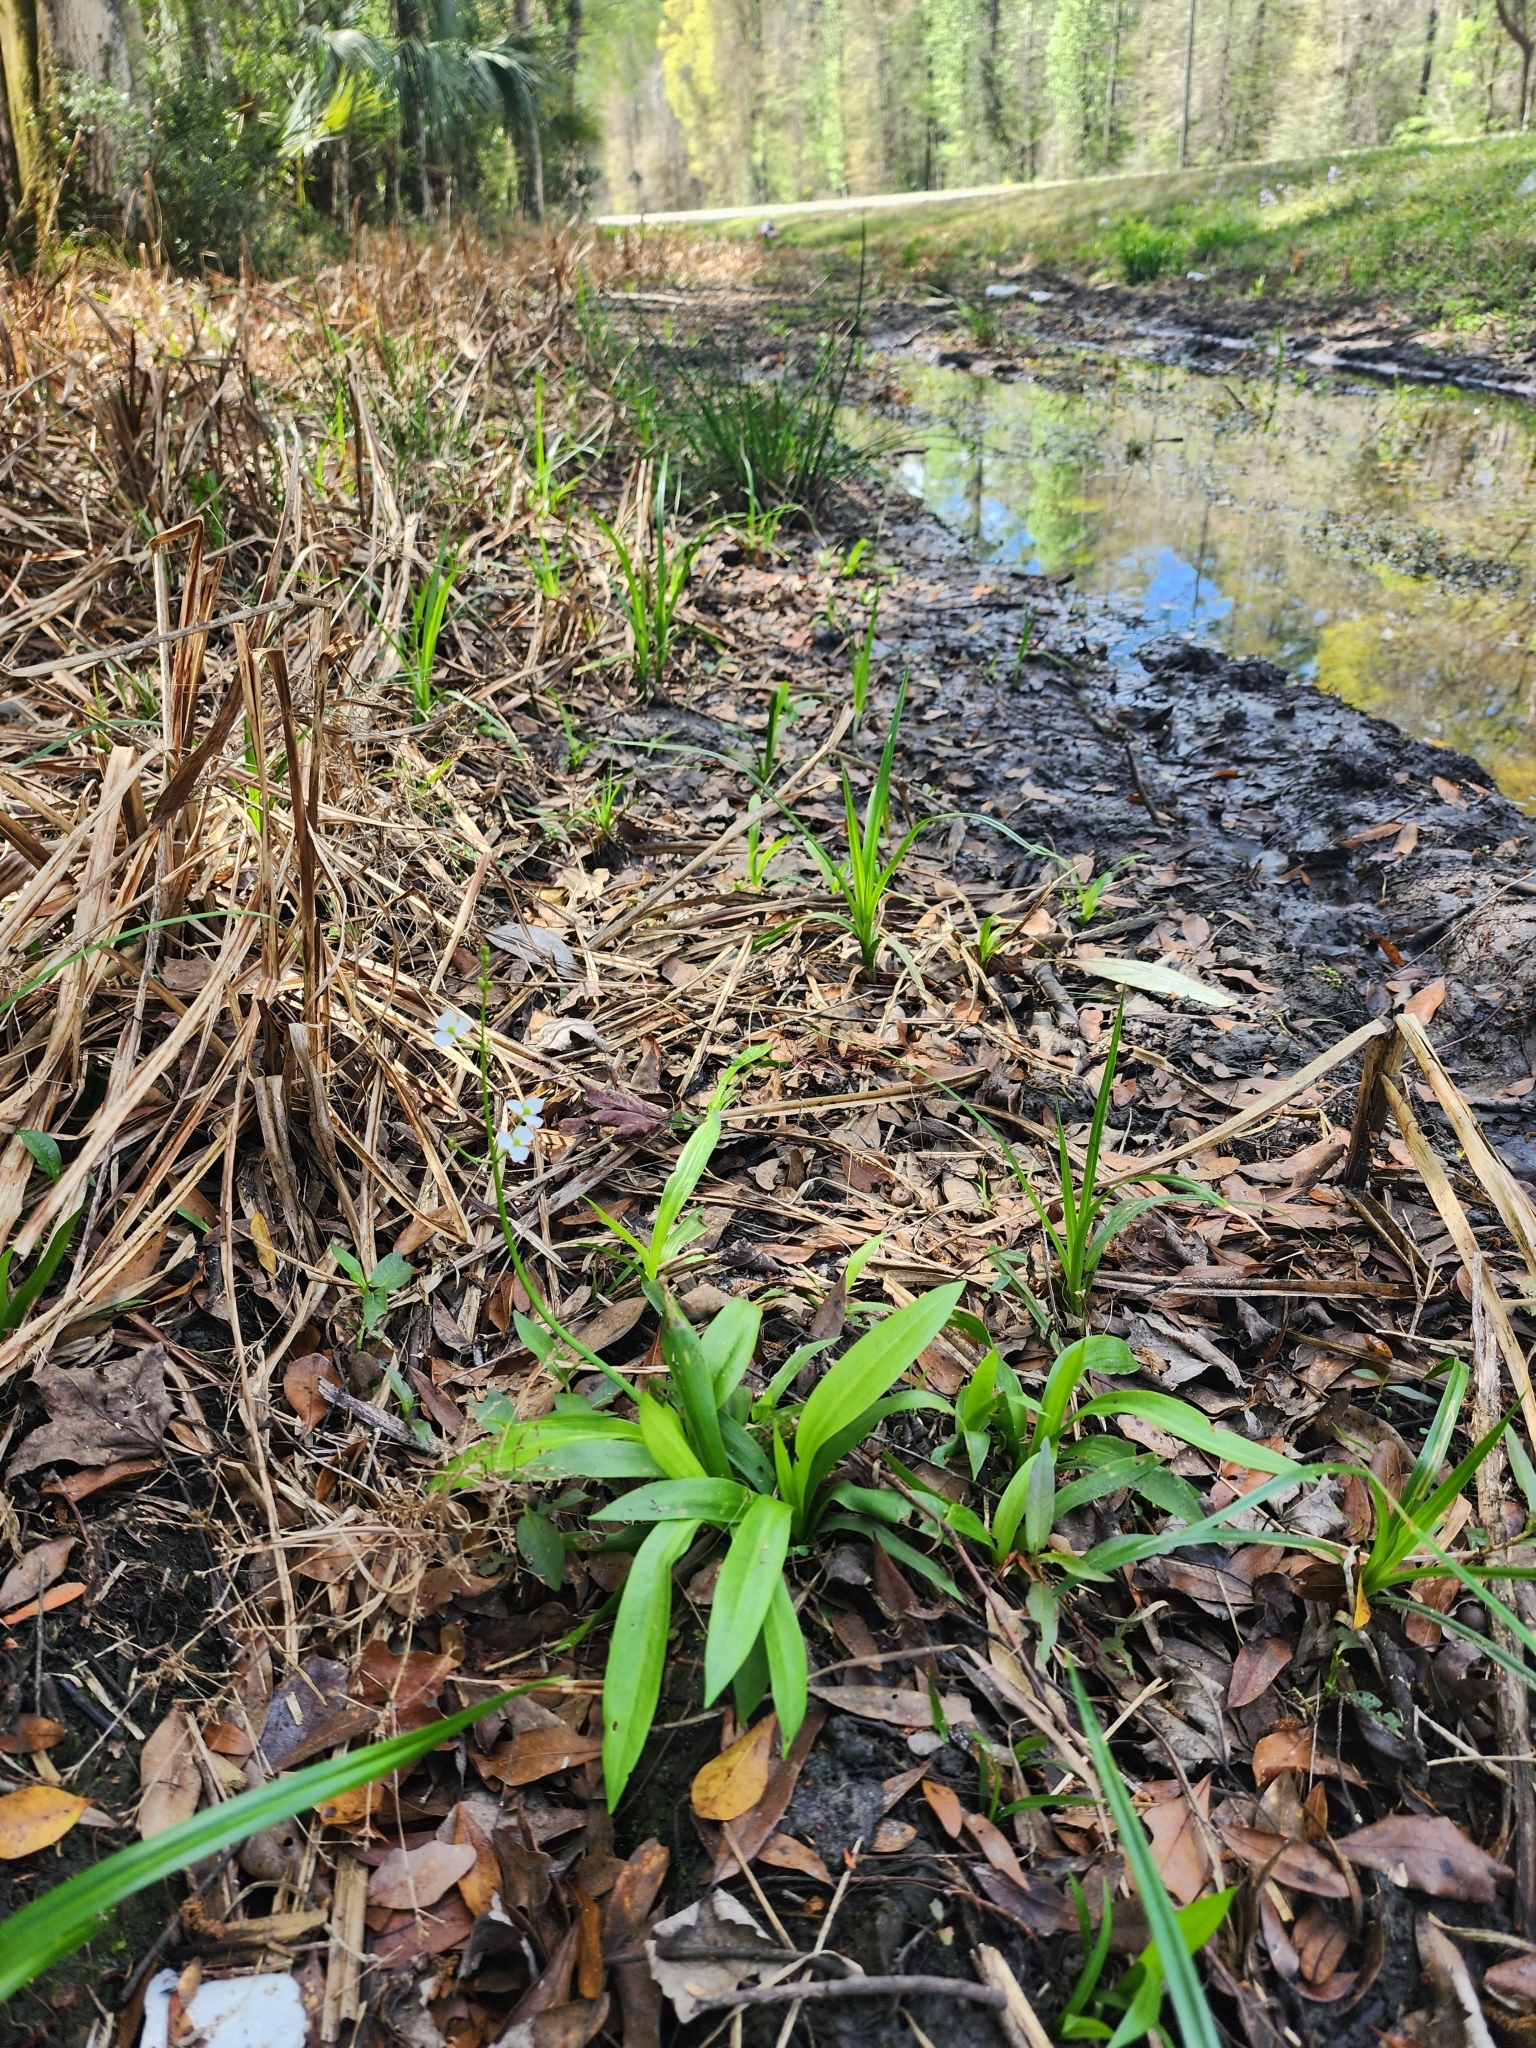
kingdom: Plantae
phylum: Tracheophyta
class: Liliopsida
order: Alismatales
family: Alismataceae
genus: Sagittaria
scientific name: Sagittaria chapmanii
